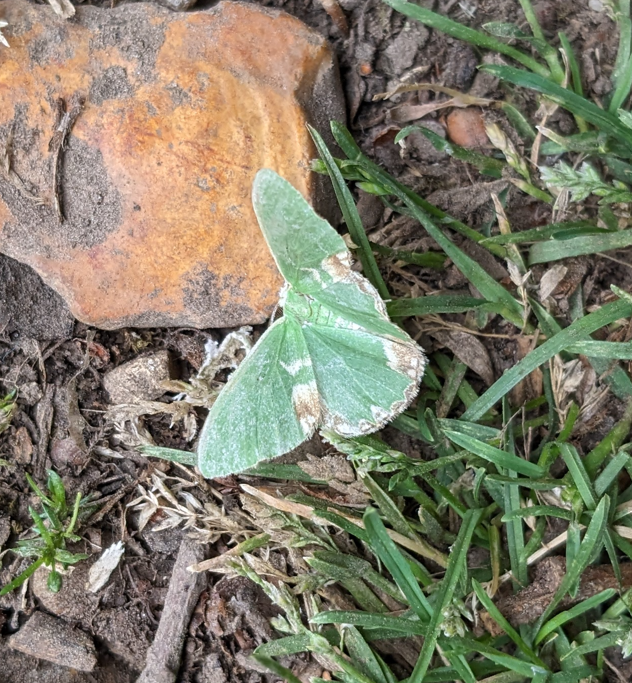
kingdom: Animalia
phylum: Arthropoda
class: Insecta
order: Lepidoptera
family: Geometridae
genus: Comibaena
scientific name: Comibaena bajularia
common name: Blotched emerald
